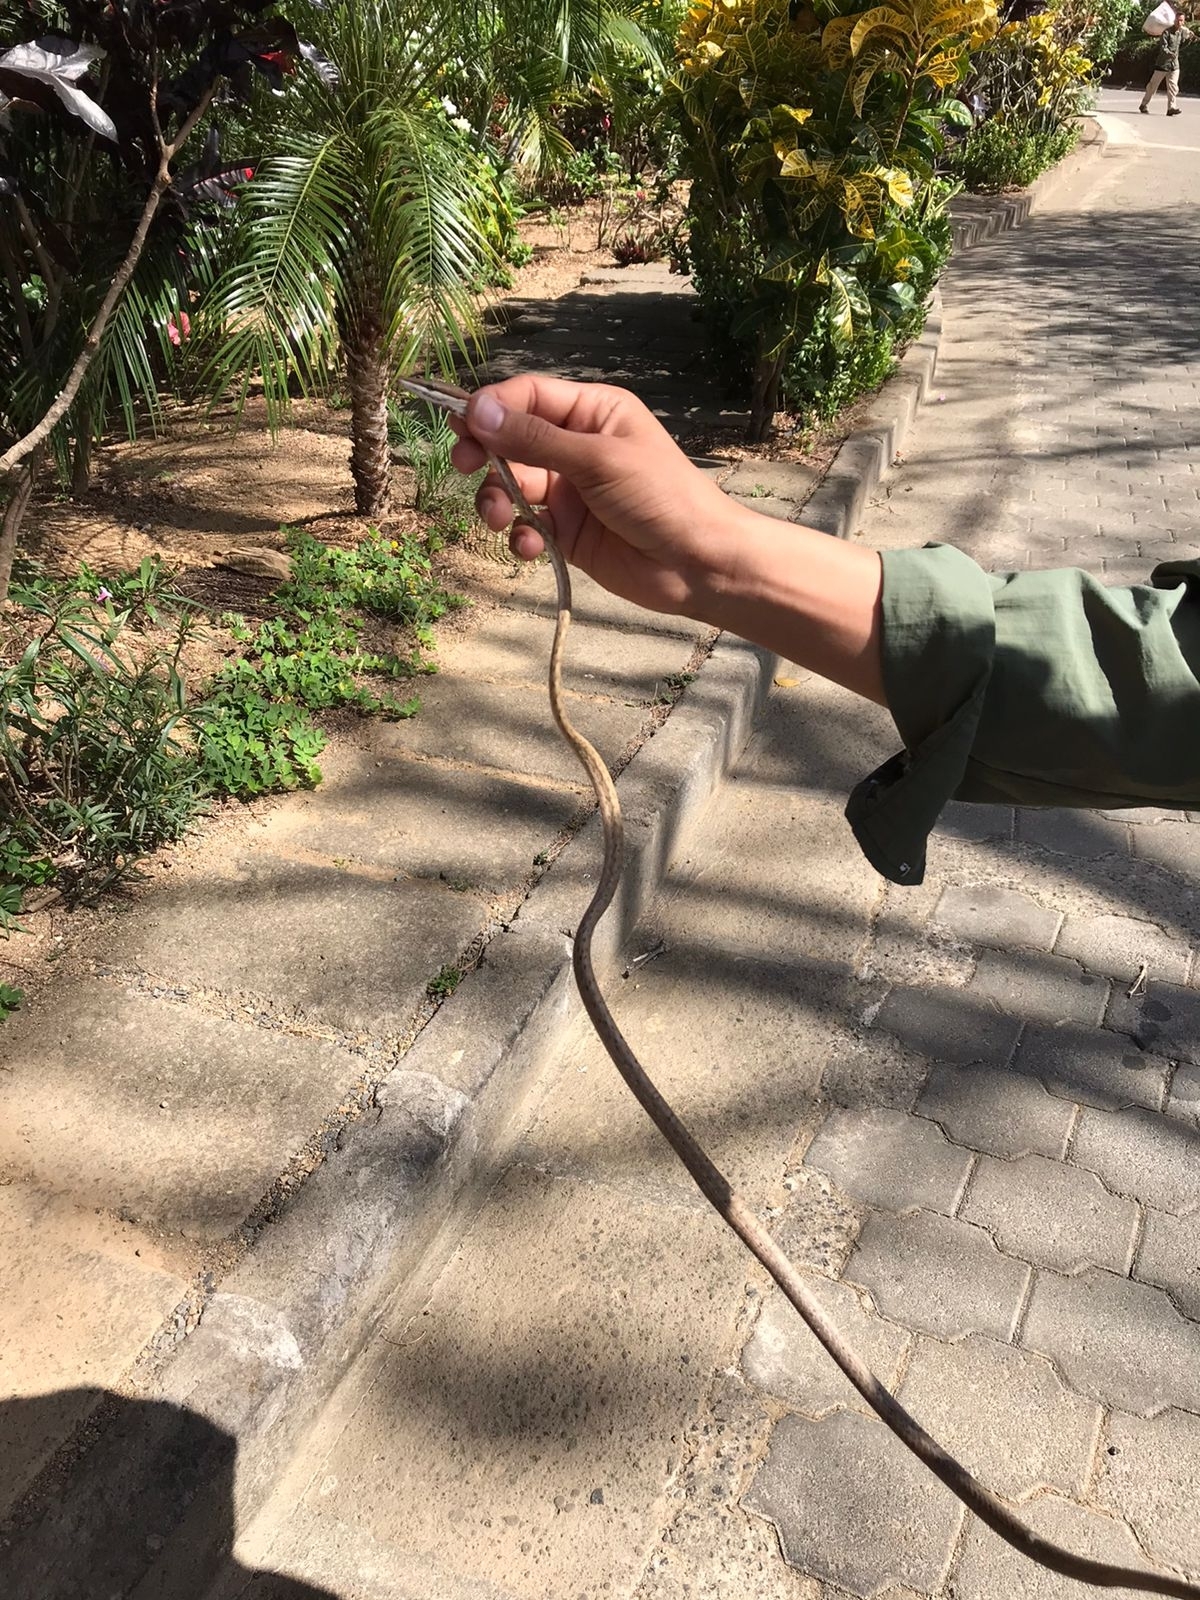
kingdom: Animalia
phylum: Chordata
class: Squamata
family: Colubridae
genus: Oxybelis
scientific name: Oxybelis koehleri
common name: Köhler’s vine snake
